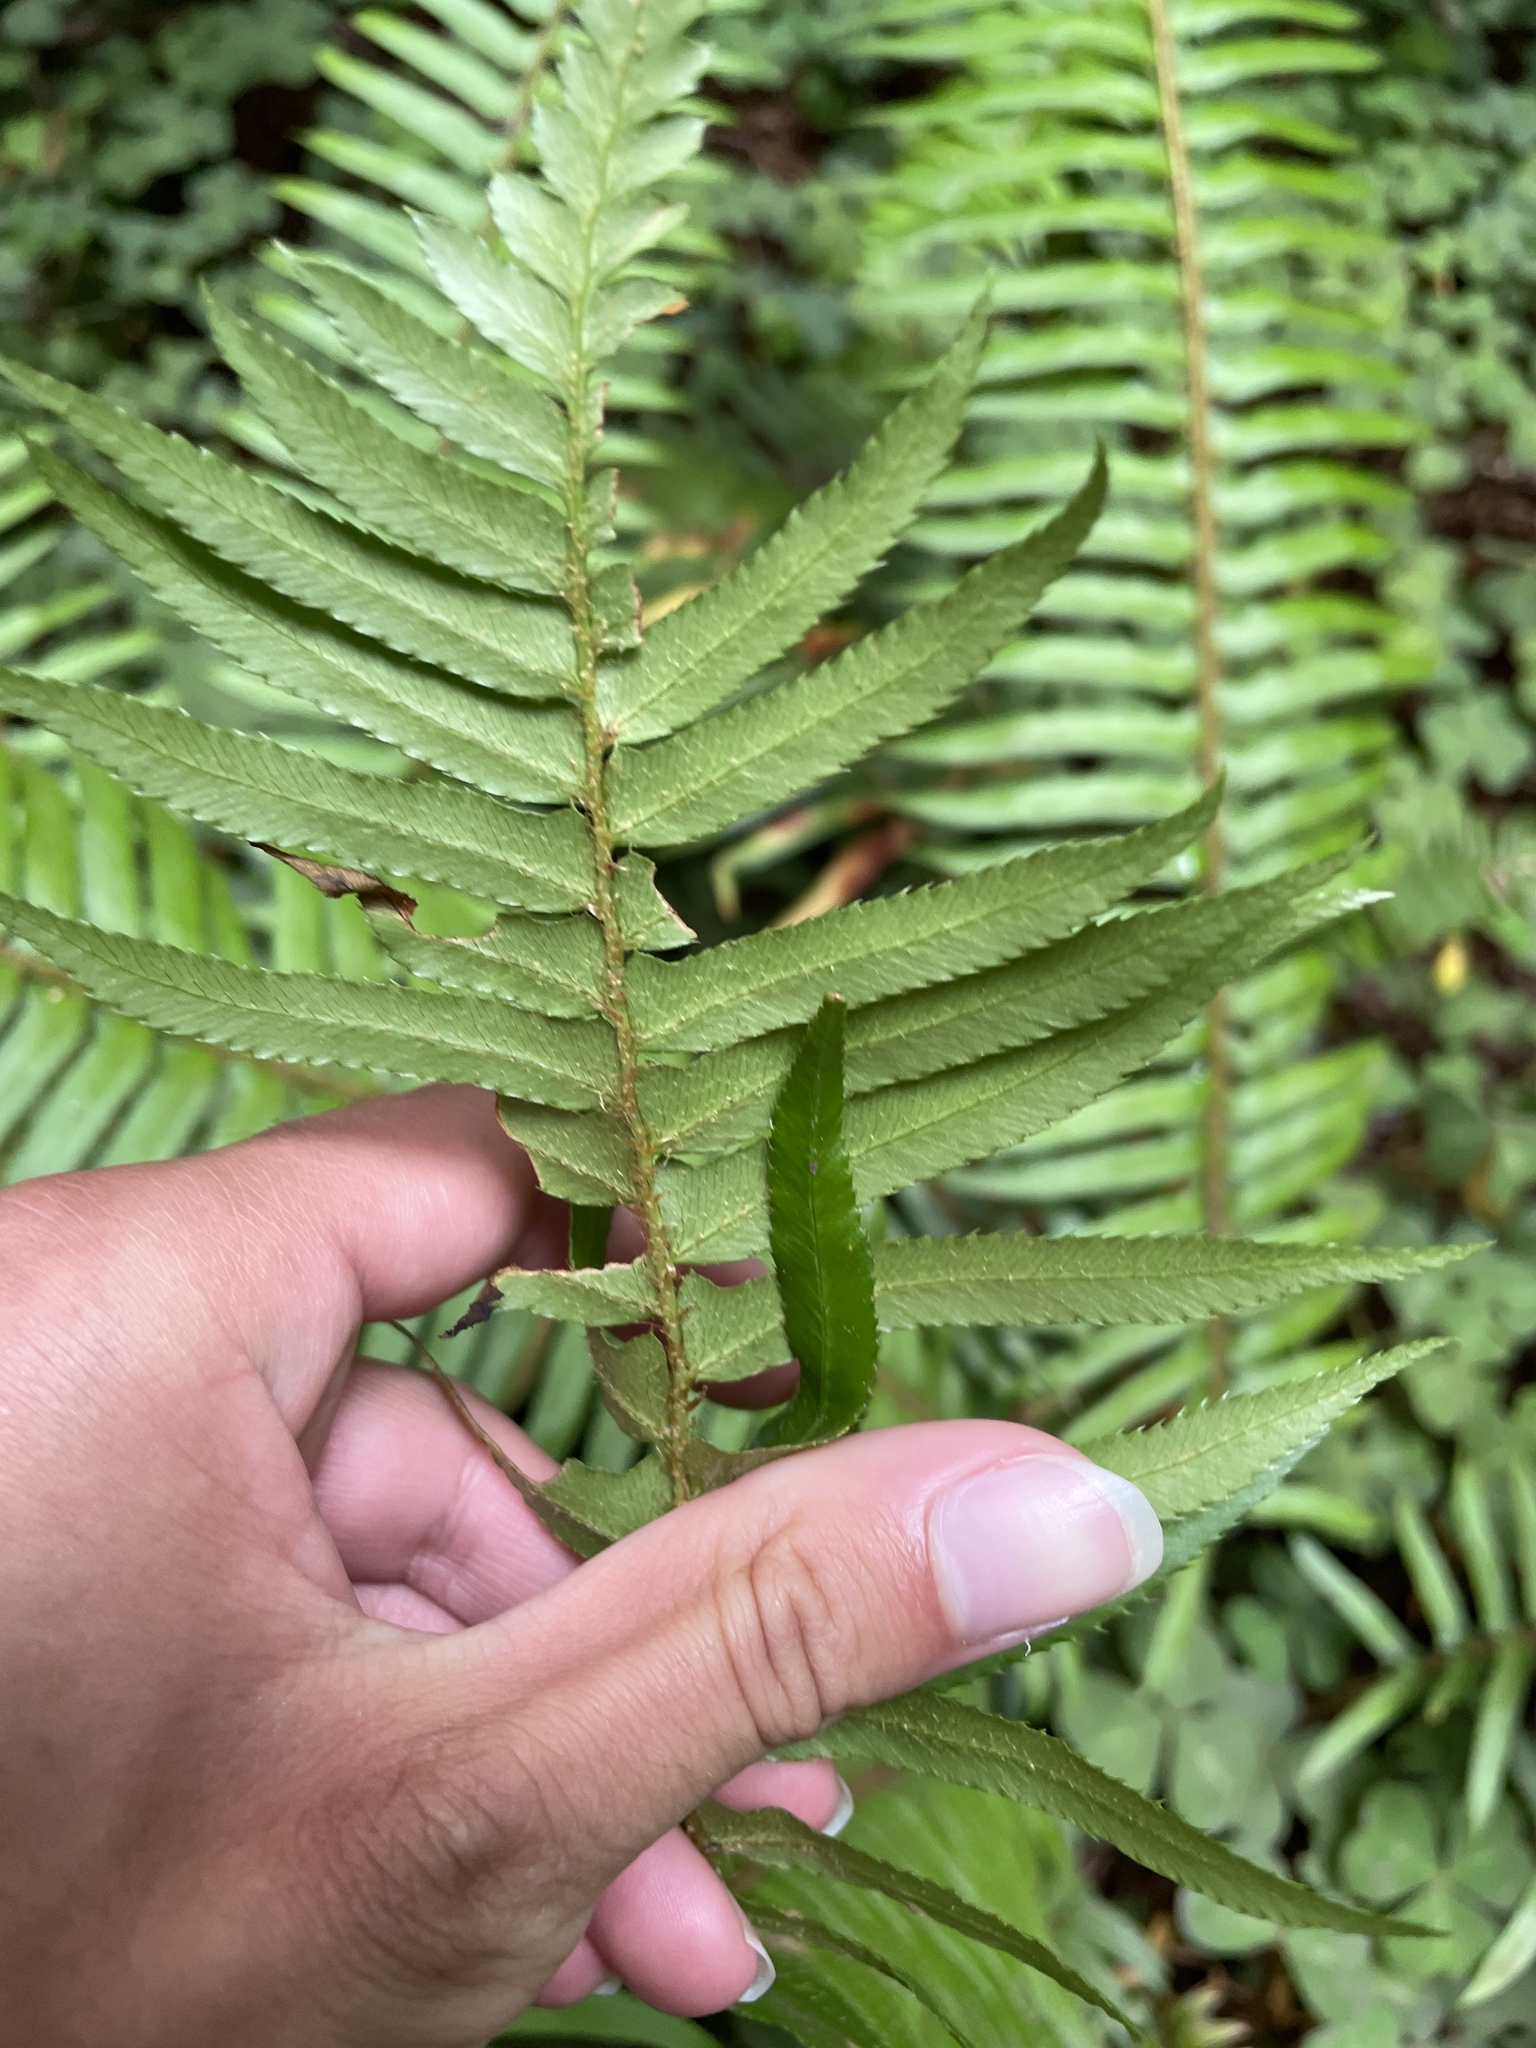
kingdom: Plantae
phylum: Tracheophyta
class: Polypodiopsida
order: Polypodiales
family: Dryopteridaceae
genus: Polystichum
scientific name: Polystichum munitum
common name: Western sword-fern
